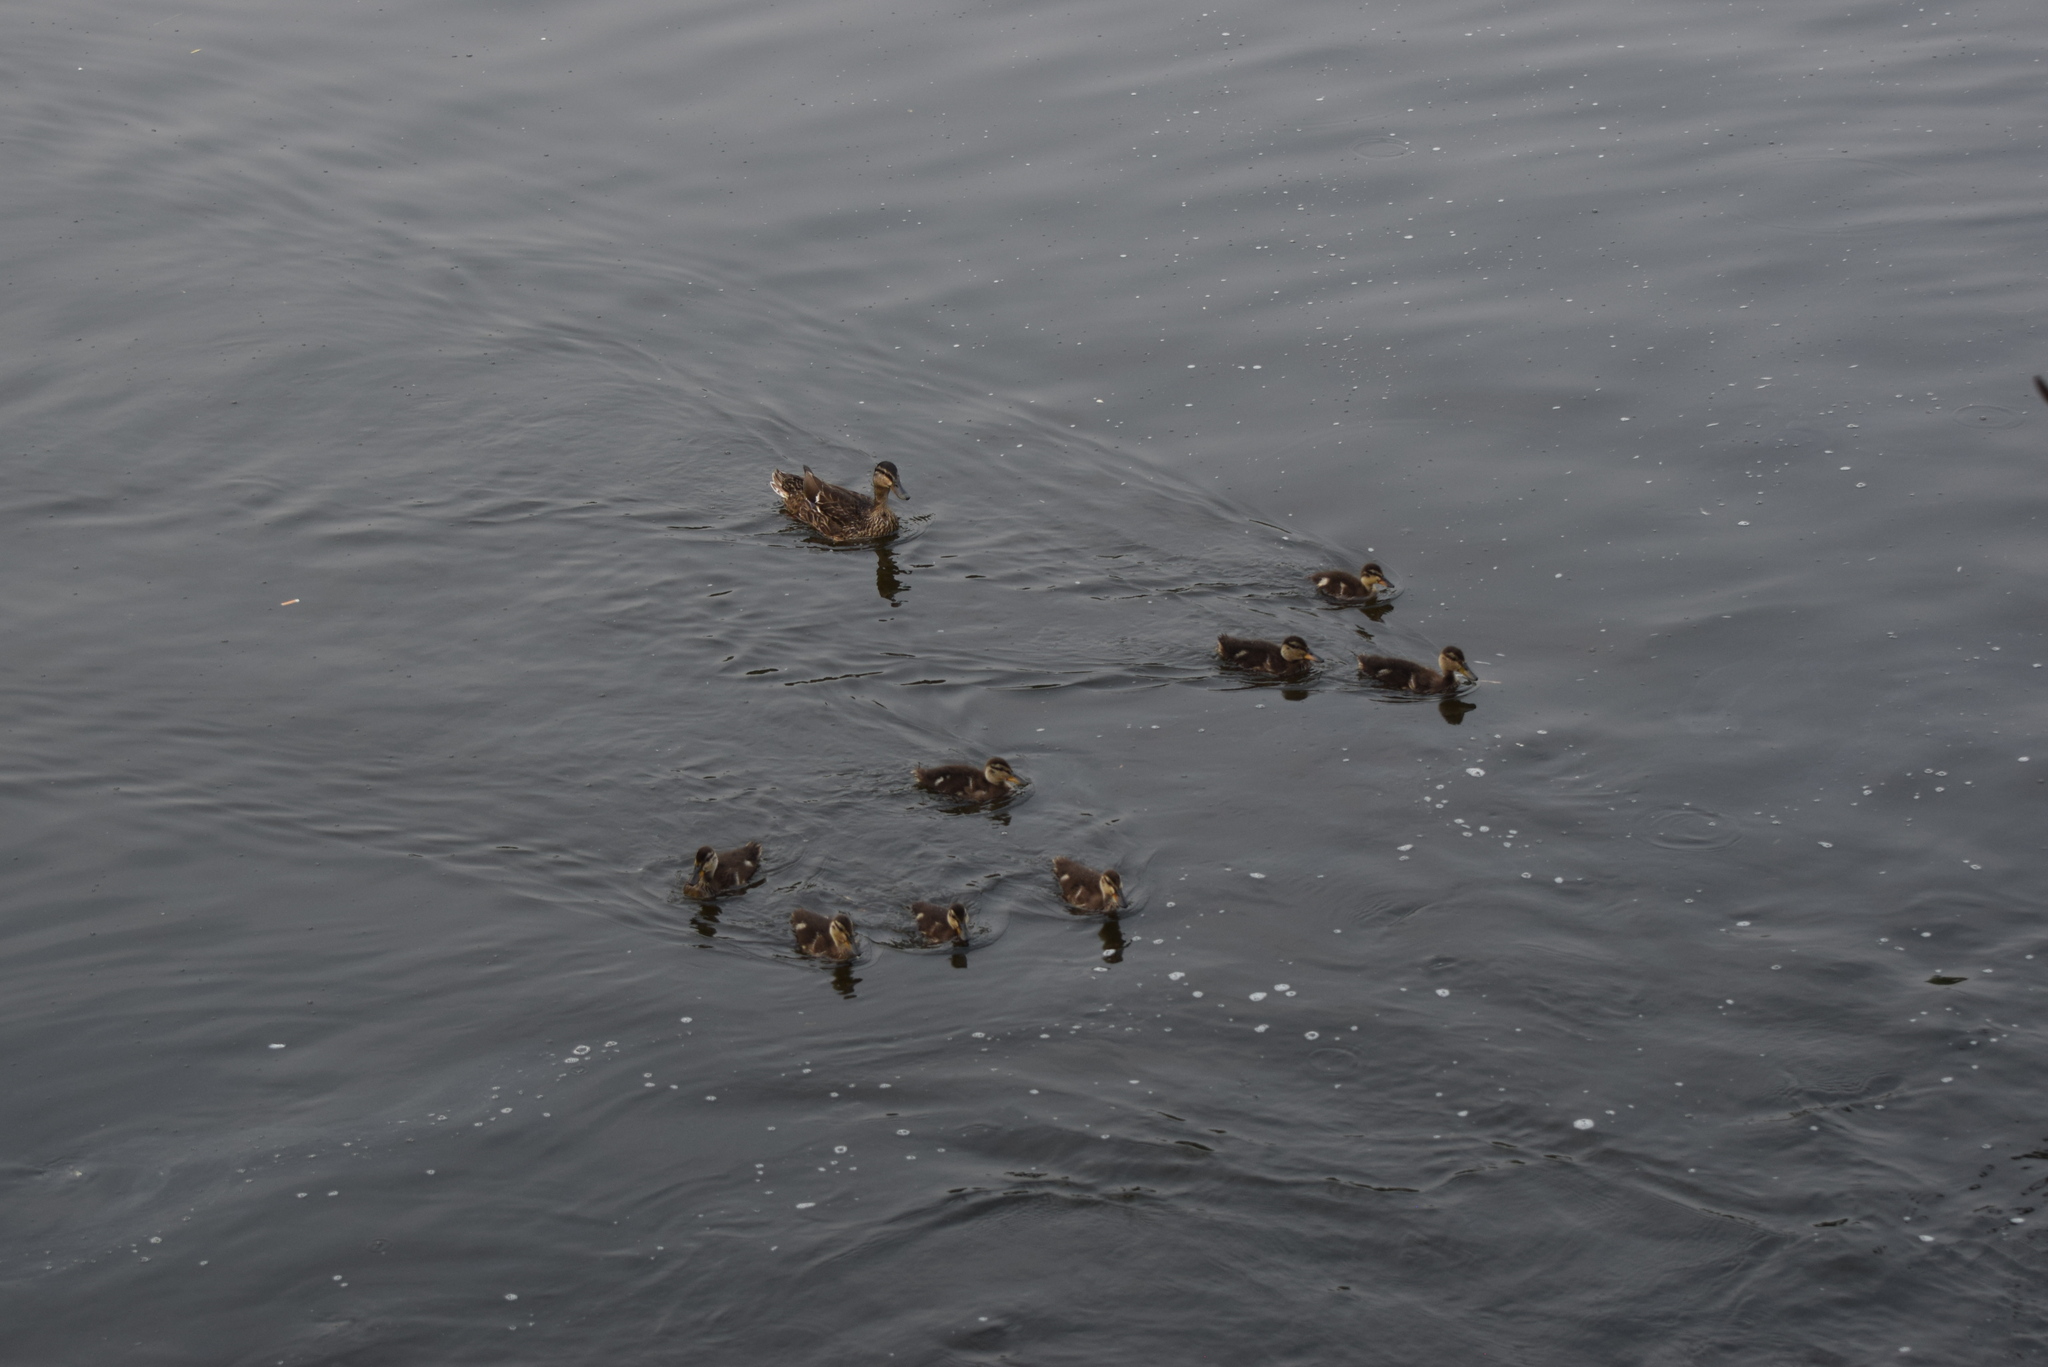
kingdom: Animalia
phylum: Chordata
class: Aves
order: Anseriformes
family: Anatidae
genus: Anas
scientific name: Anas platyrhynchos
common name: Mallard
